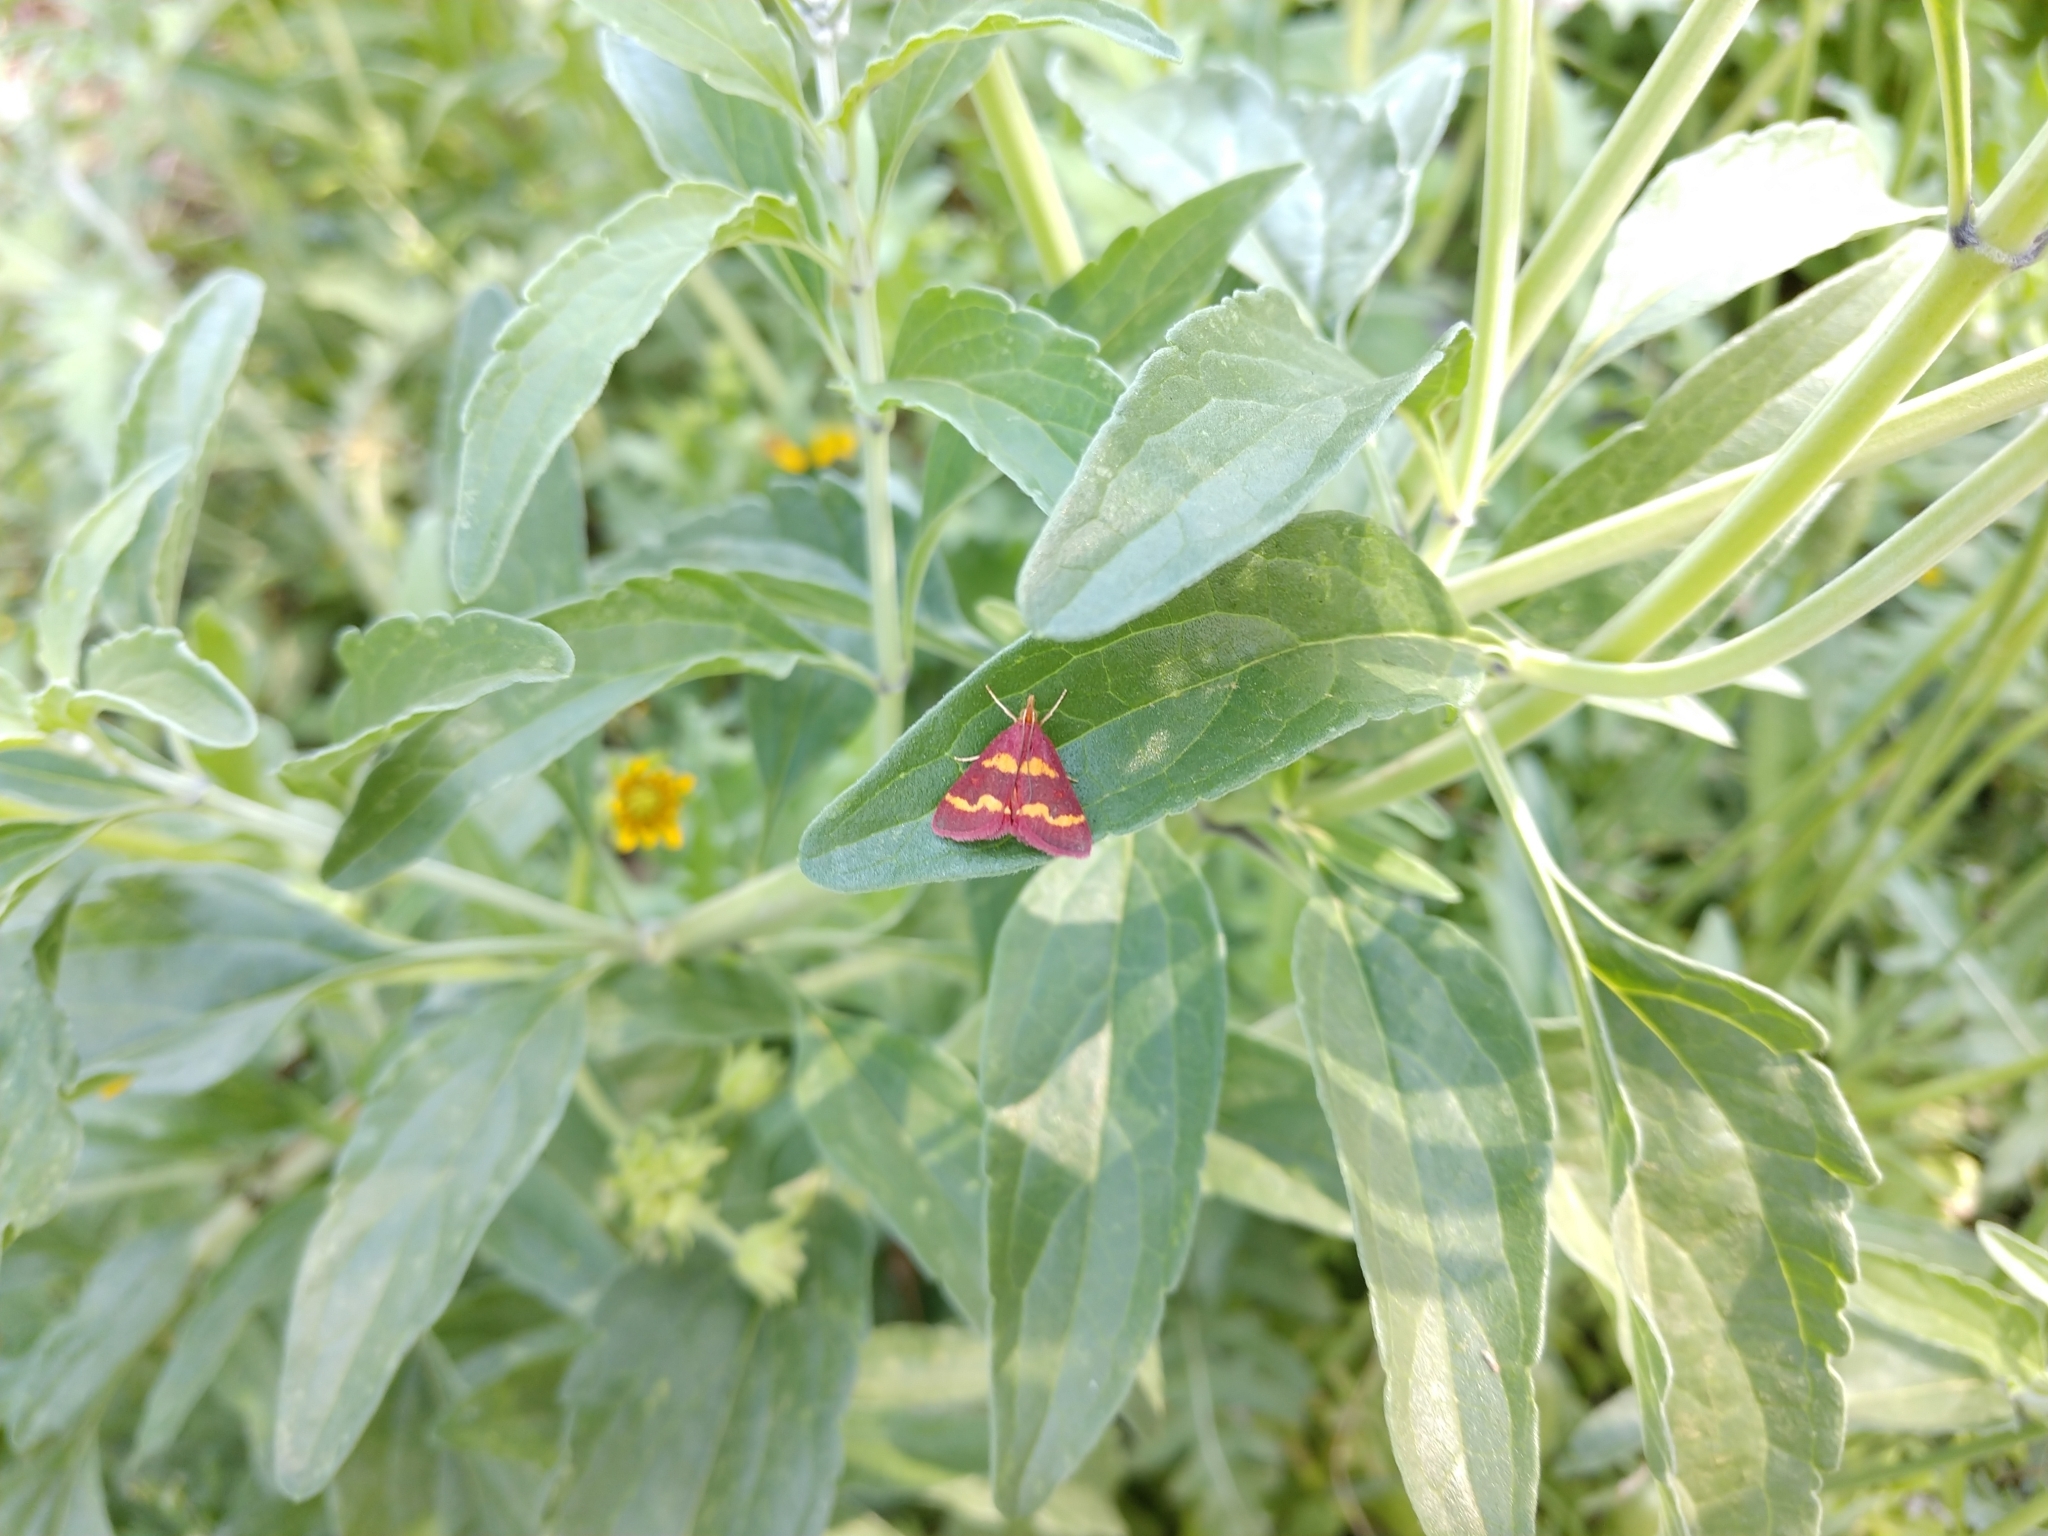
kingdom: Animalia
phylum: Arthropoda
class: Insecta
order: Lepidoptera
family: Crambidae
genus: Pyrausta
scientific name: Pyrausta tyralis
